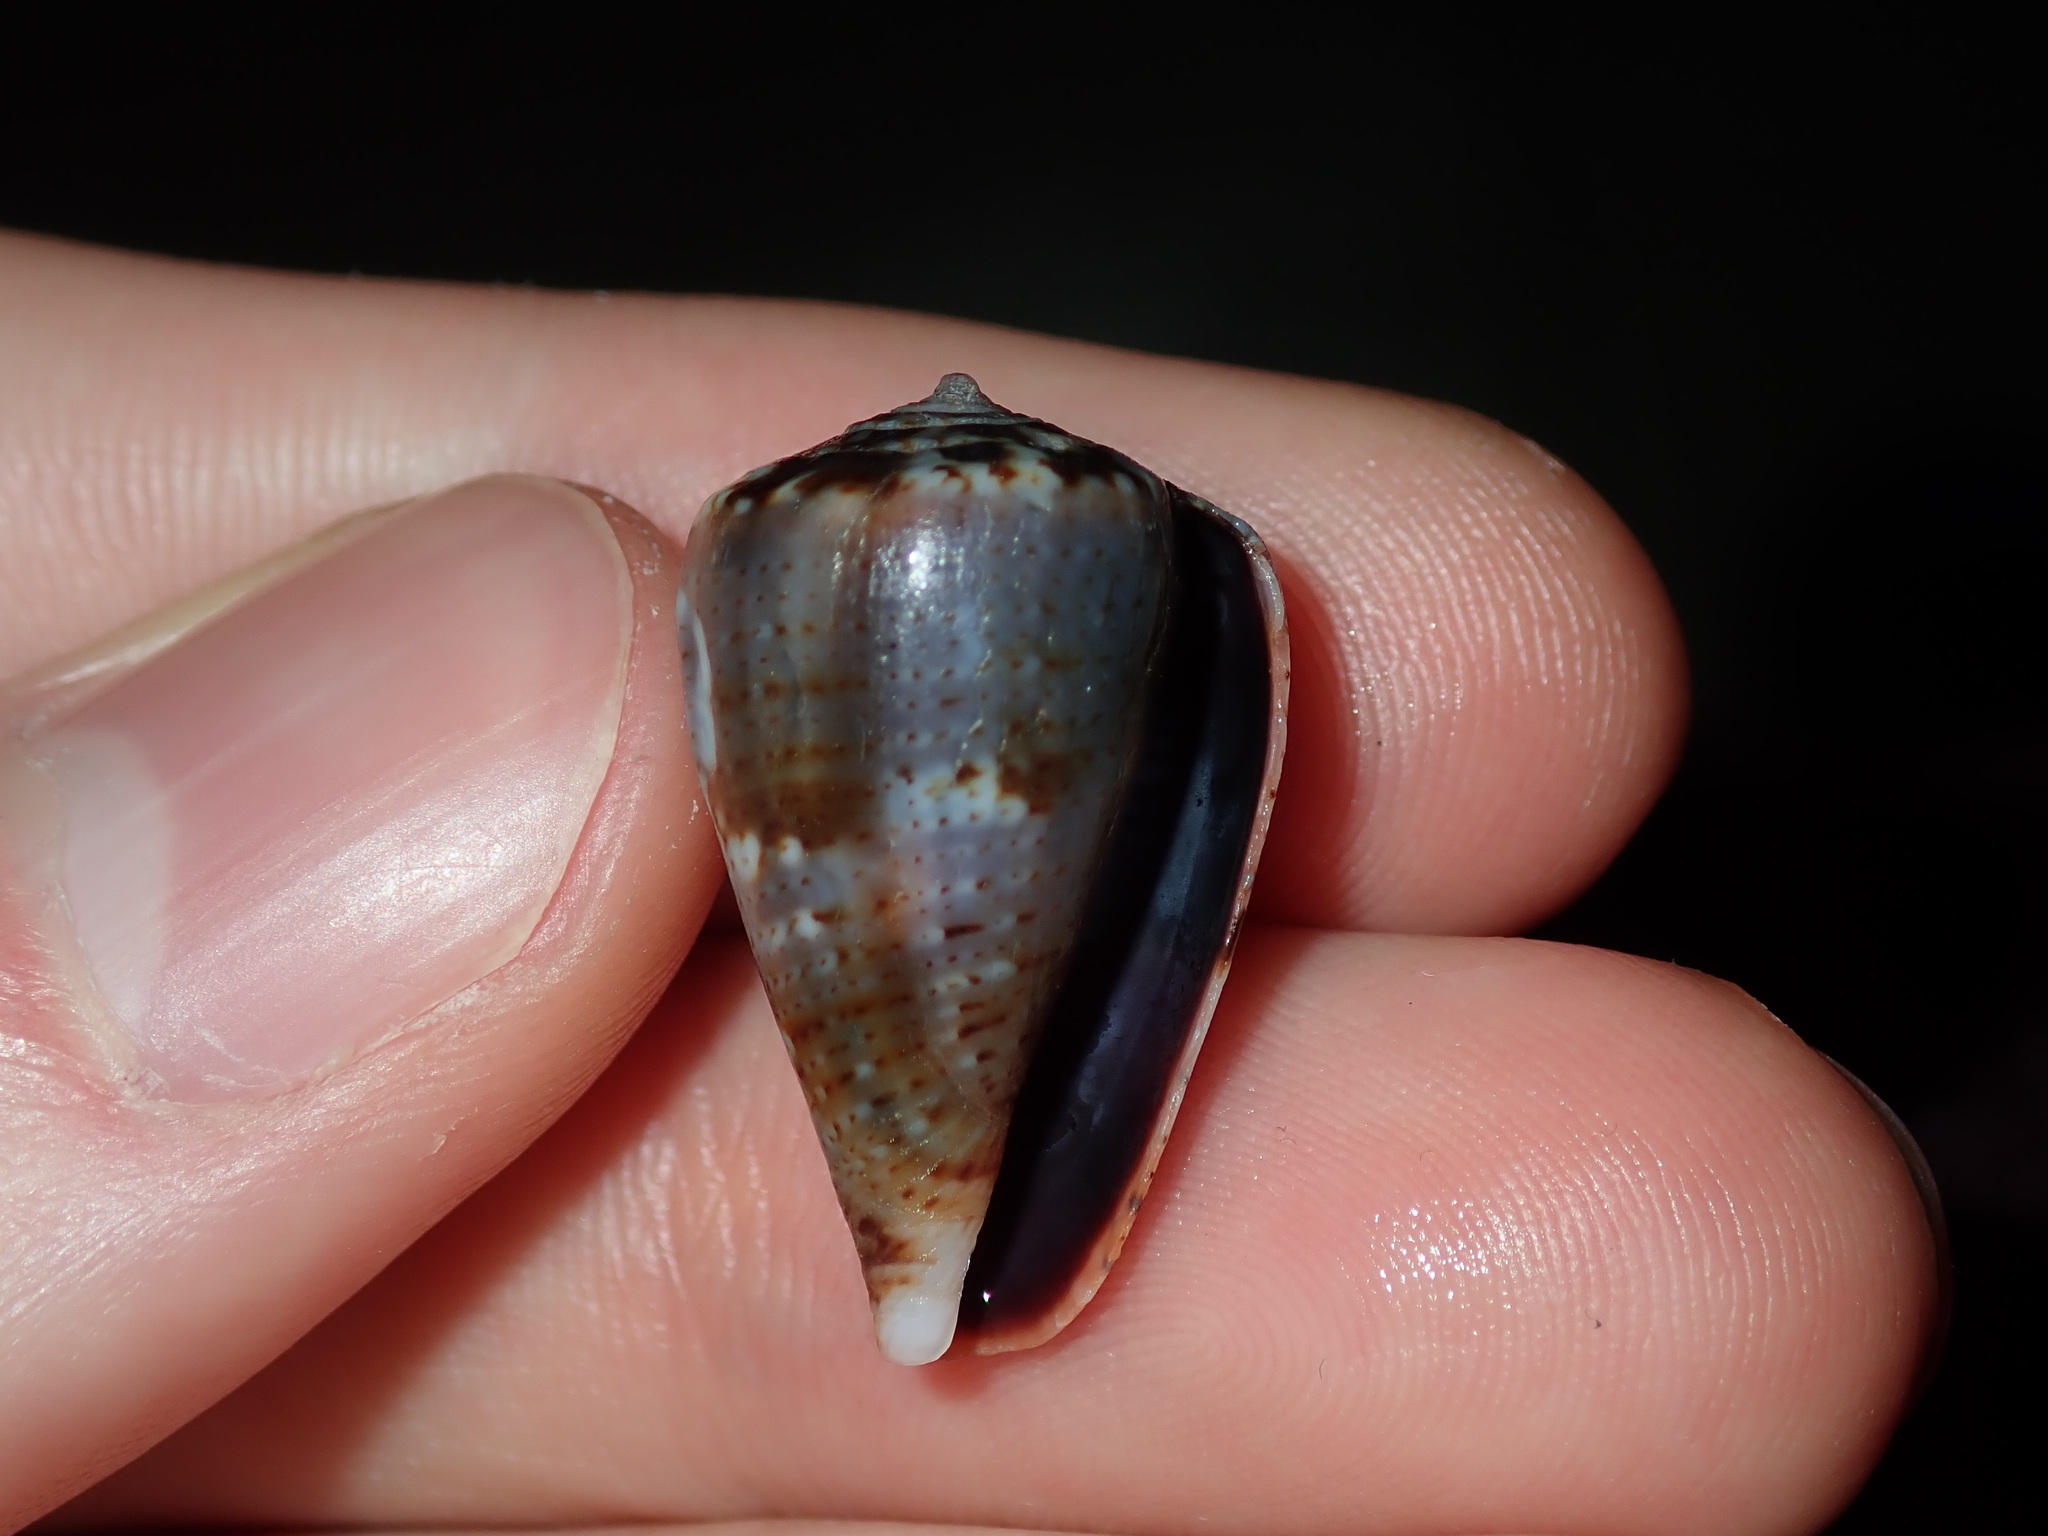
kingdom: Animalia
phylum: Mollusca
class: Gastropoda
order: Neogastropoda
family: Conidae
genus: Conus
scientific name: Conus papilliferus
